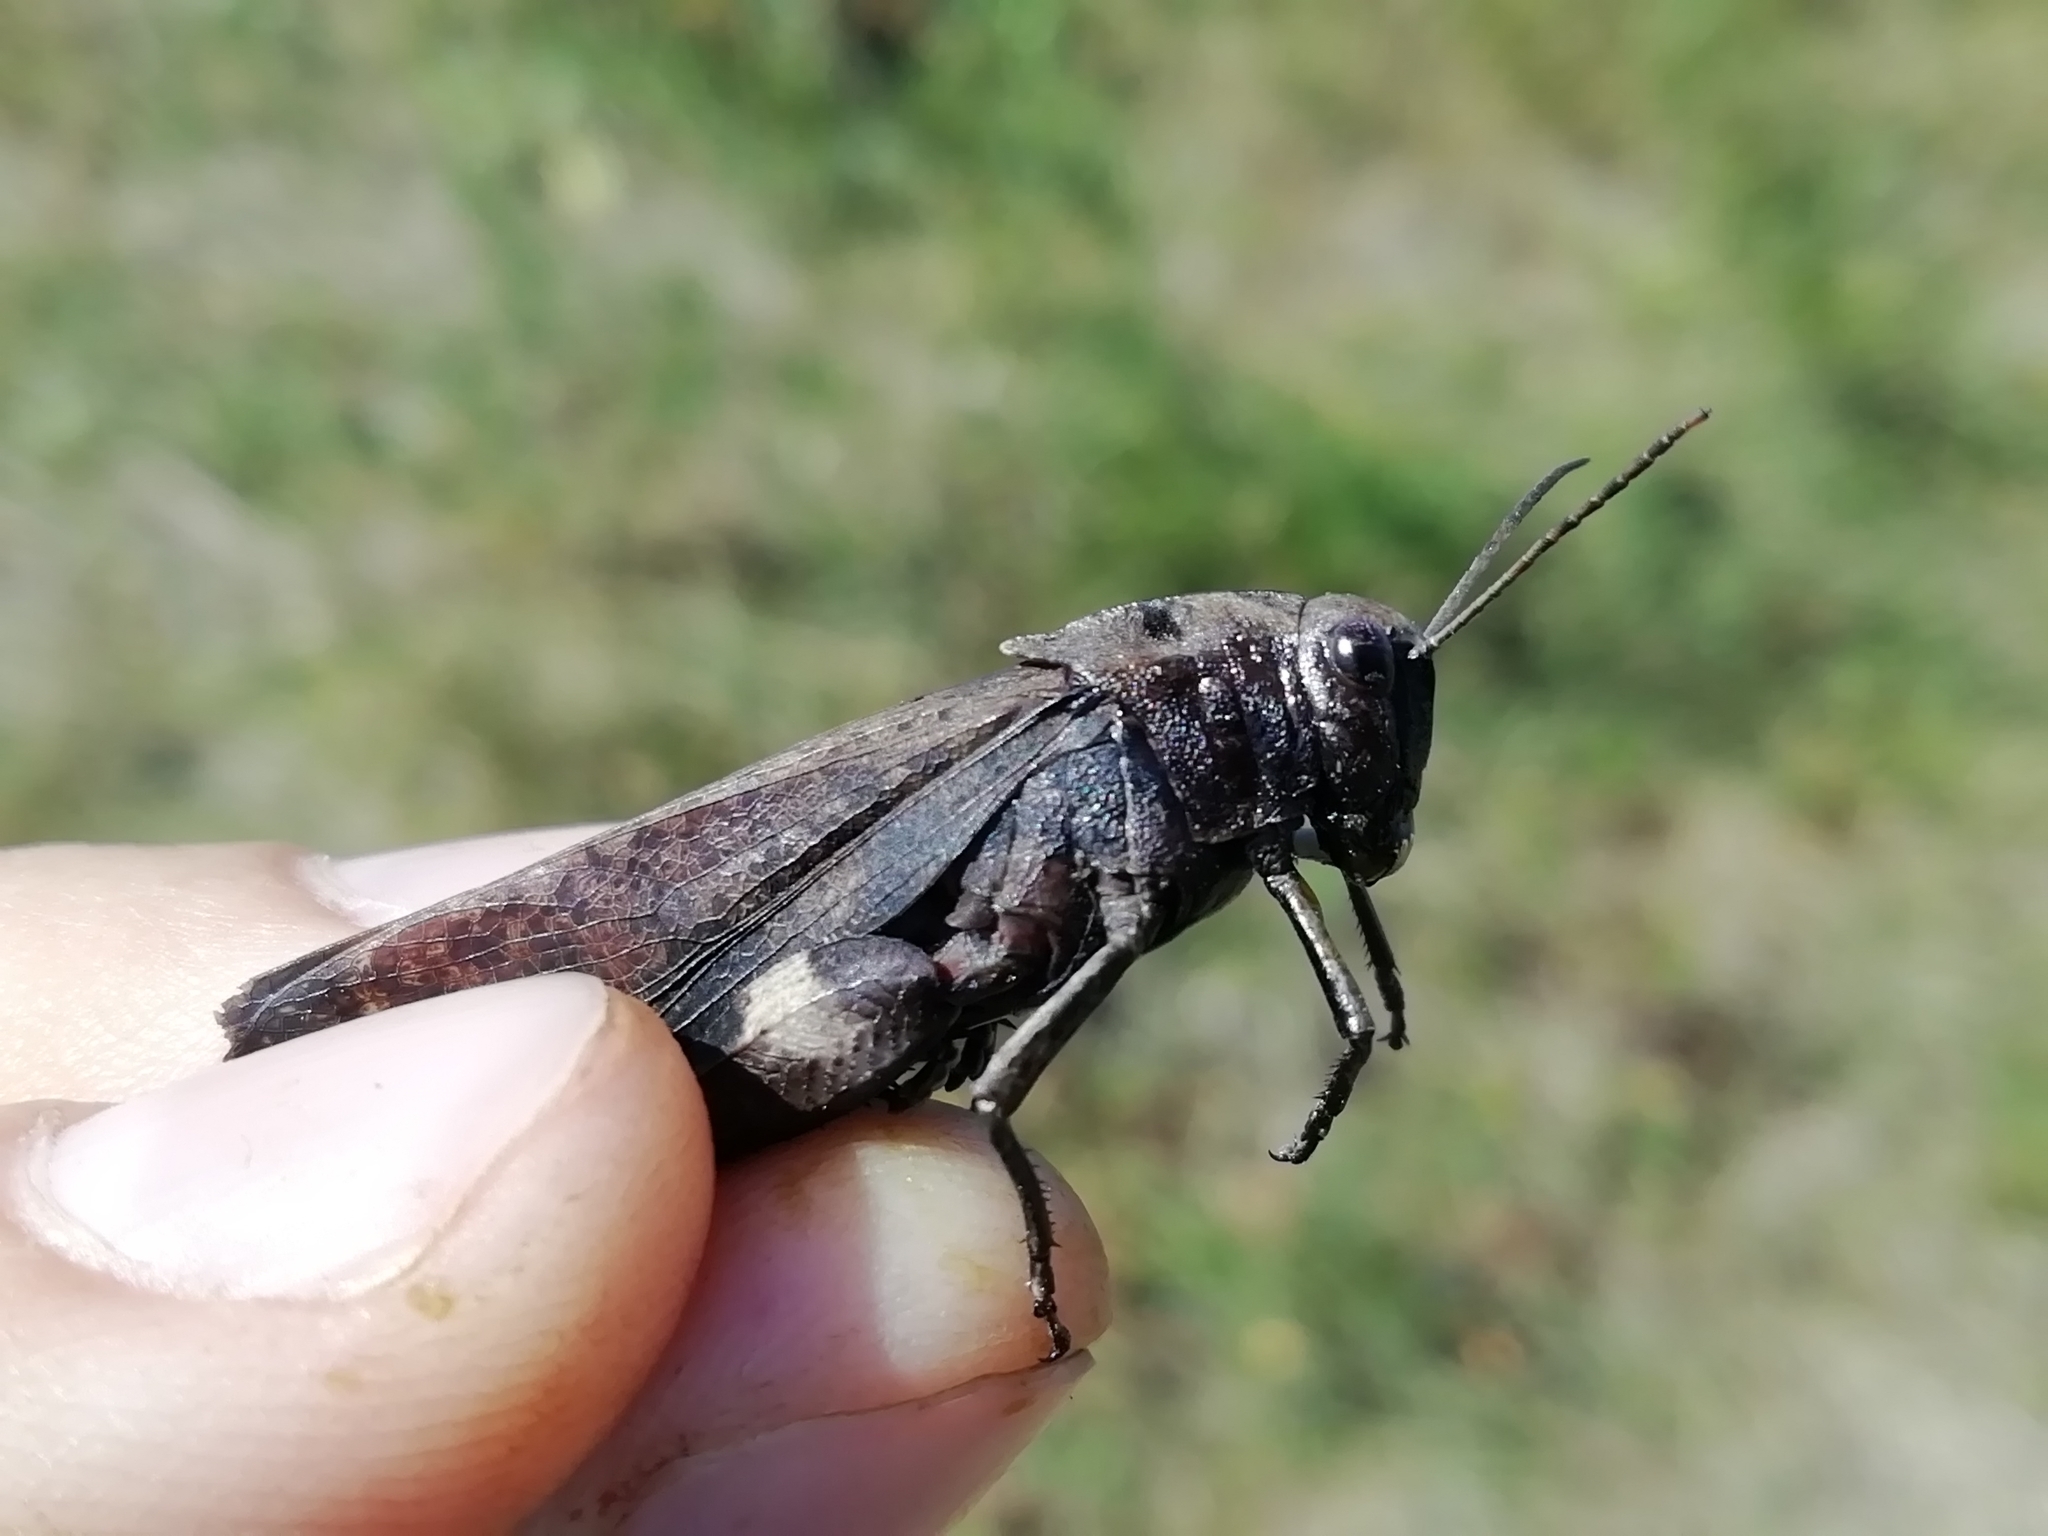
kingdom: Animalia
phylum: Arthropoda
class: Insecta
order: Orthoptera
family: Acrididae
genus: Psophus
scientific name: Psophus stridulus
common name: Rattle grasshopper
